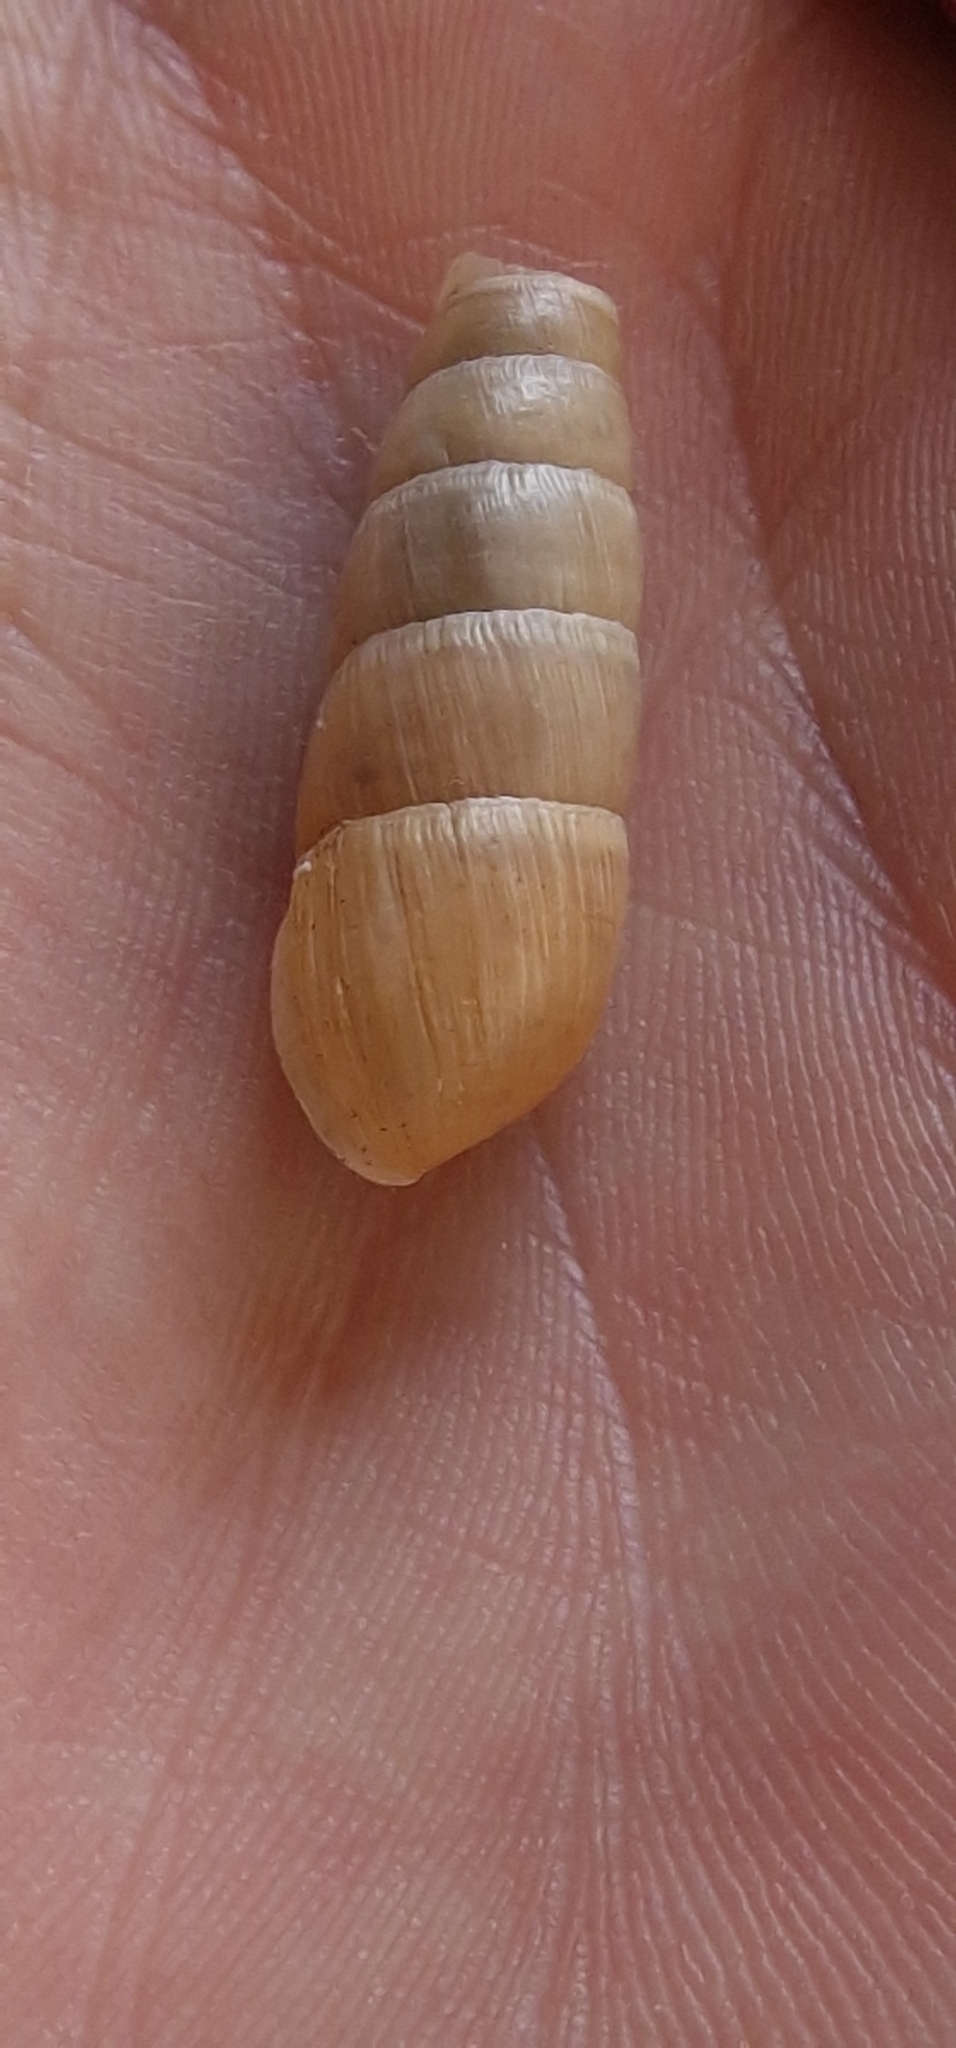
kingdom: Animalia
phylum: Mollusca
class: Gastropoda
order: Stylommatophora
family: Achatinidae
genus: Rumina
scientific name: Rumina decollata
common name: Decollate snail
